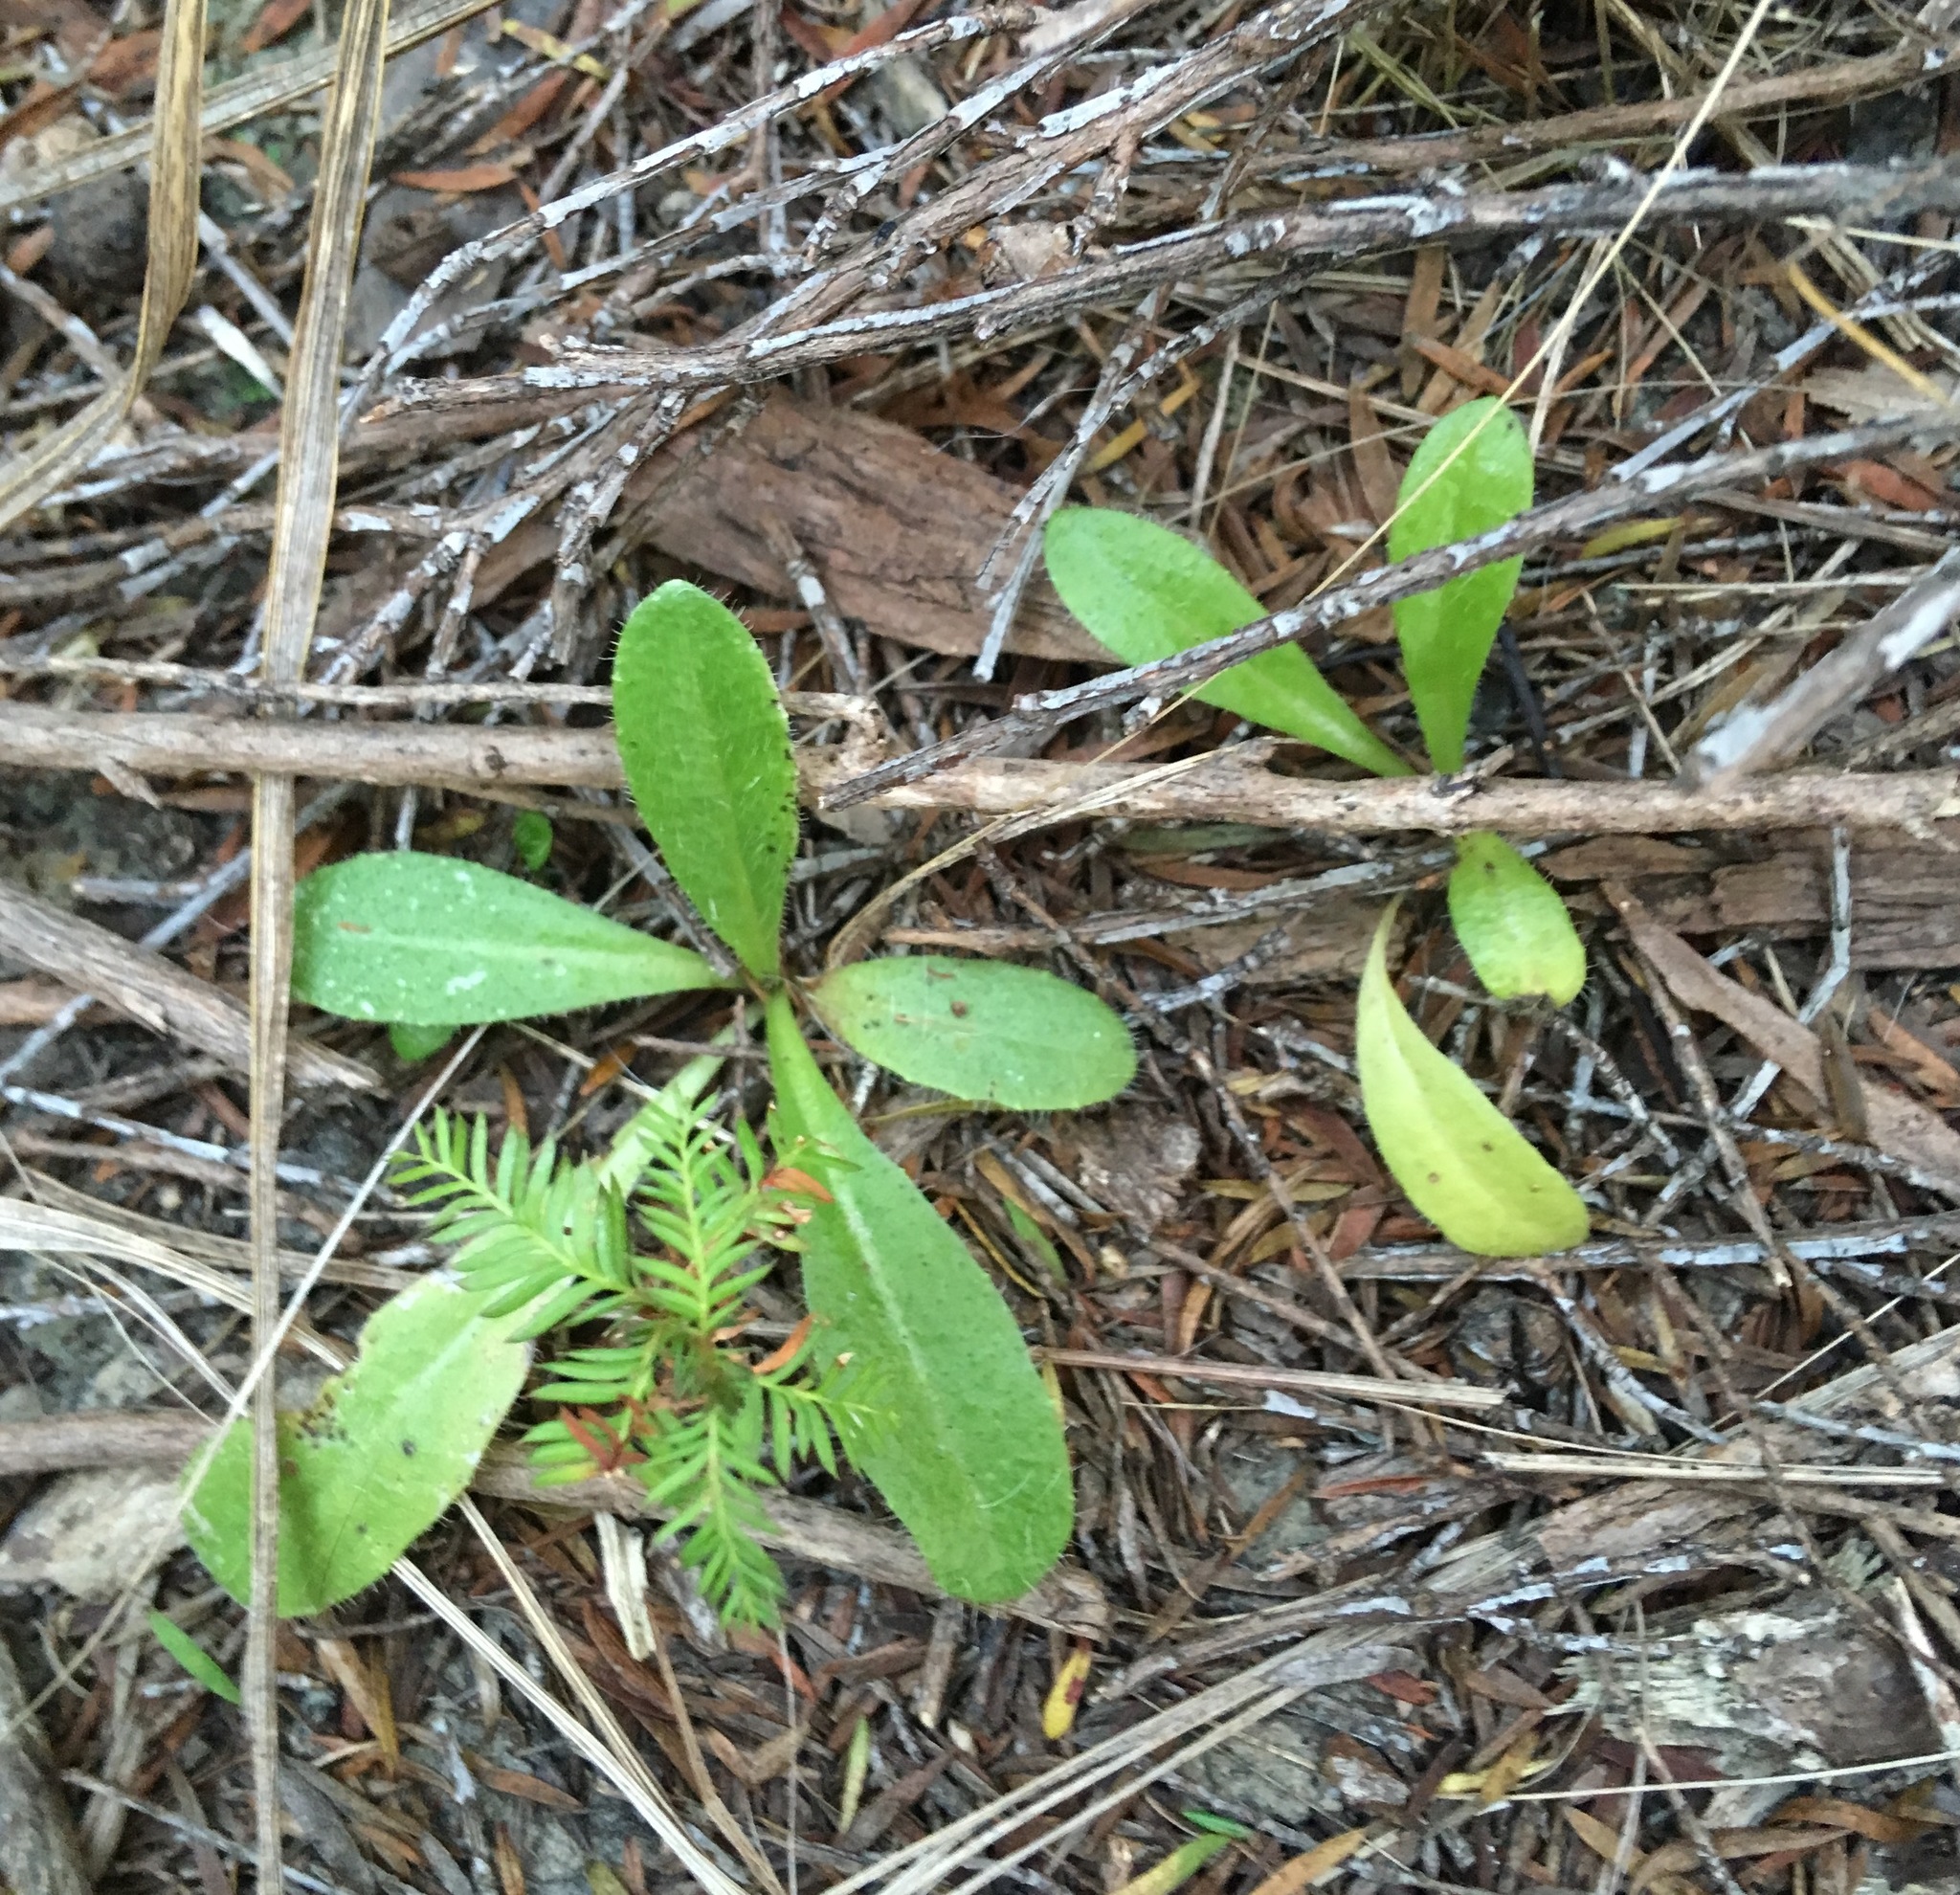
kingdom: Plantae
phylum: Tracheophyta
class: Pinopsida
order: Pinales
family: Podocarpaceae
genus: Dacrycarpus
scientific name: Dacrycarpus dacrydioides
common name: White pine
